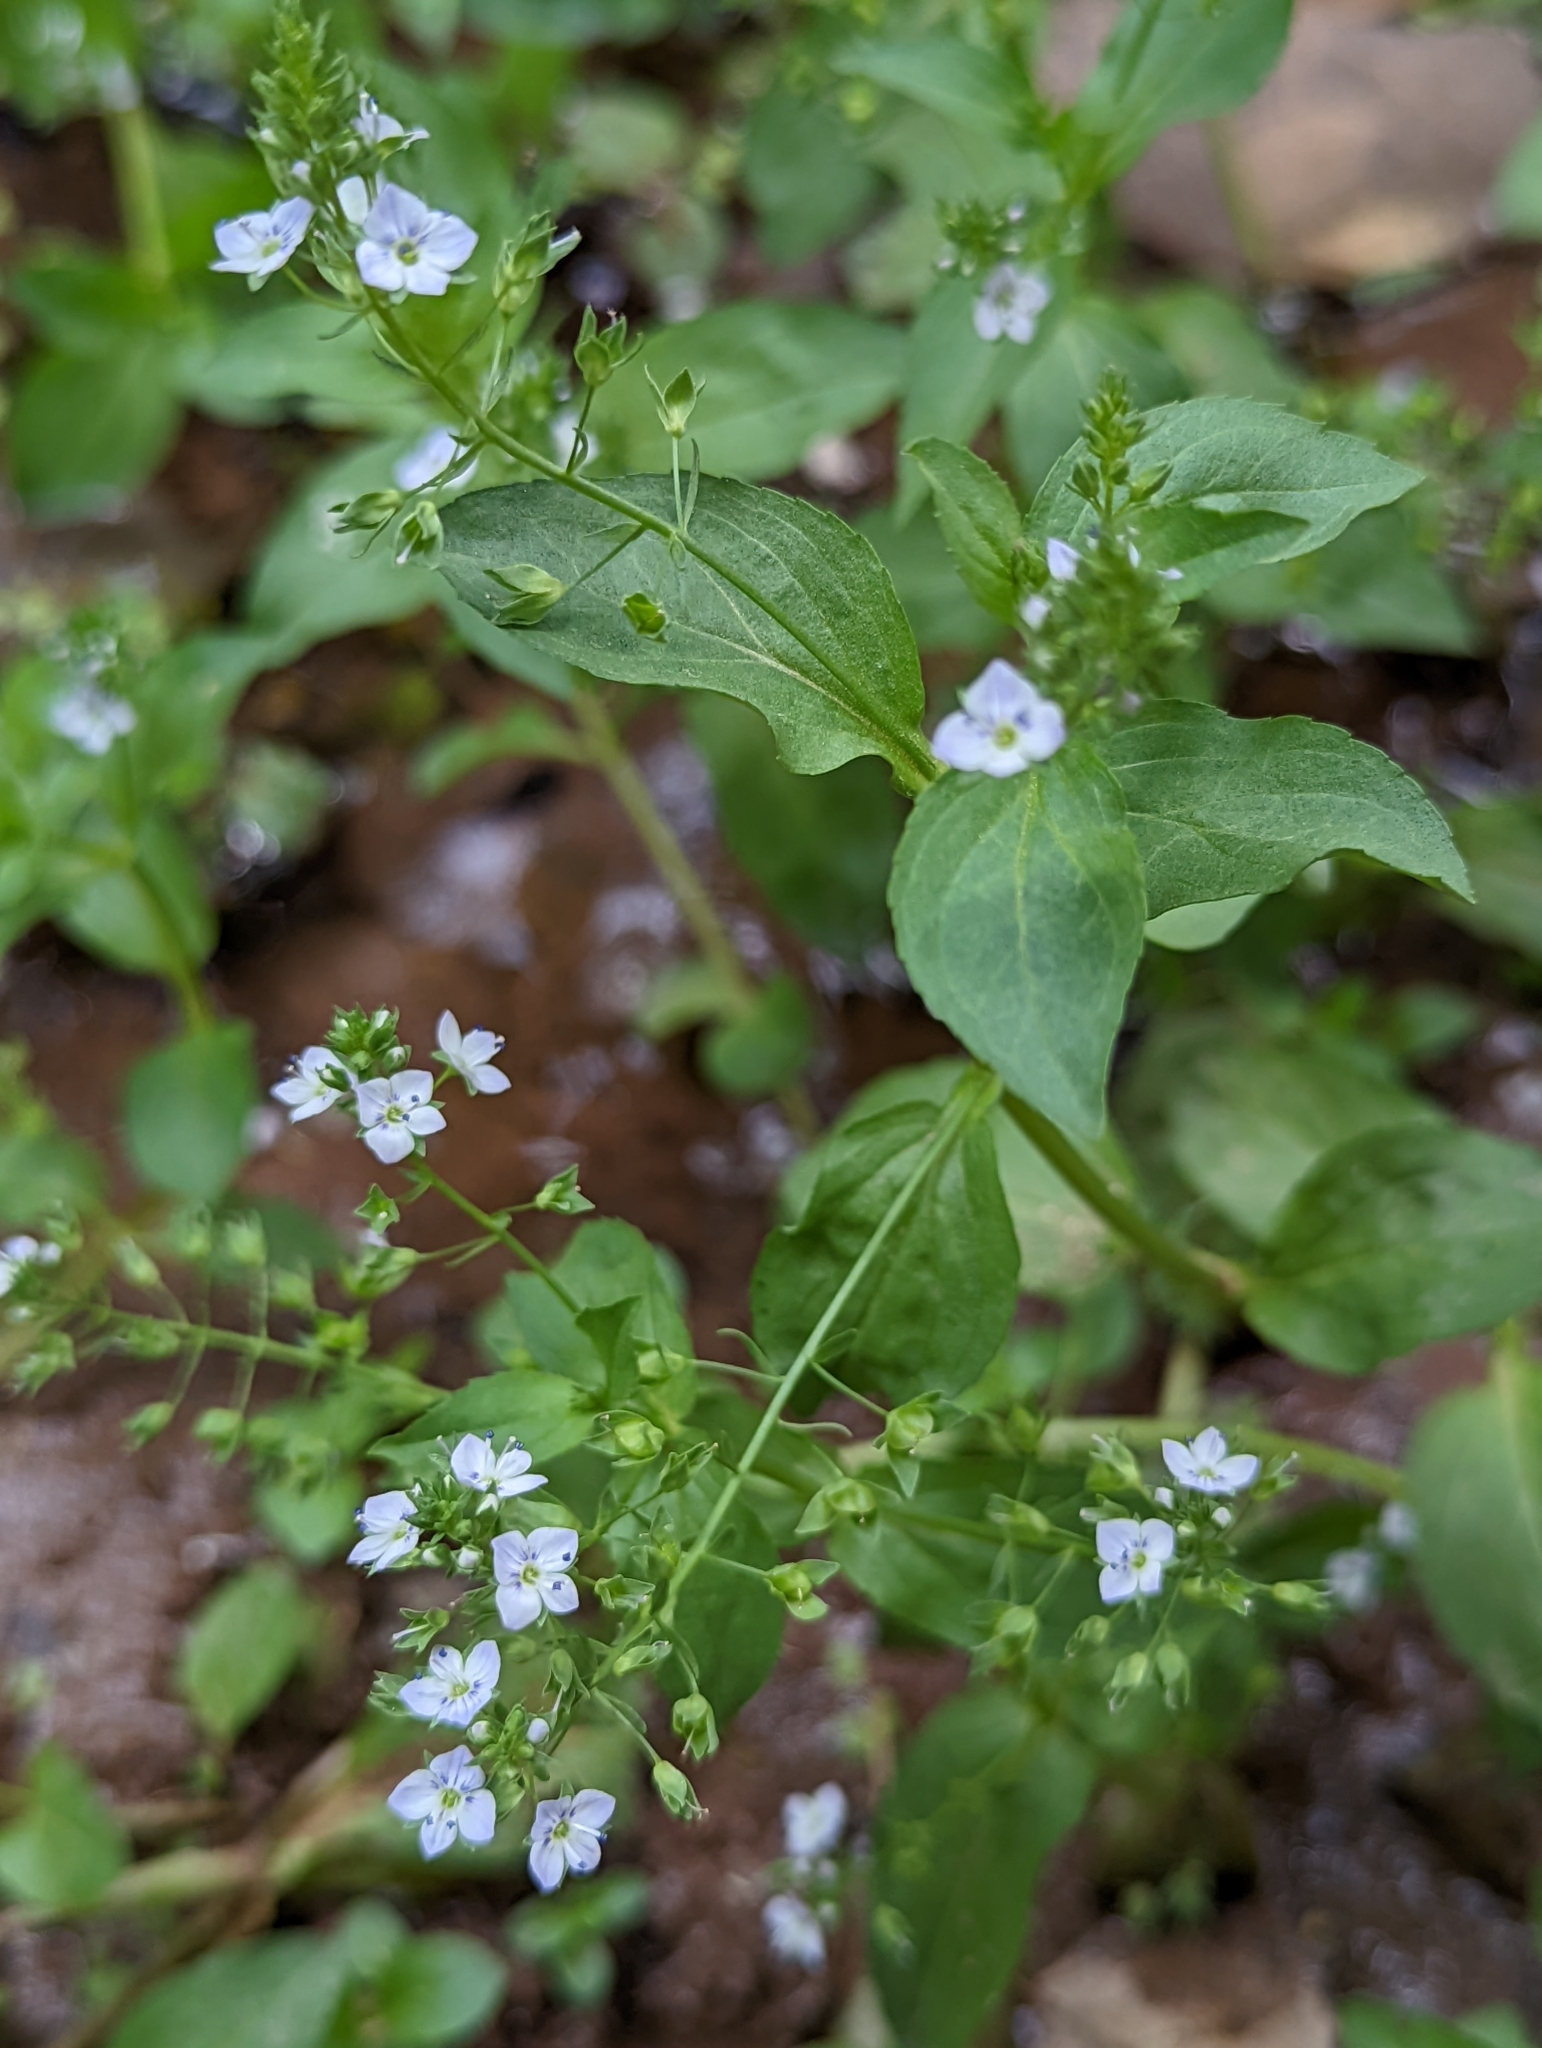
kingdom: Plantae
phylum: Tracheophyta
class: Magnoliopsida
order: Lamiales
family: Plantaginaceae
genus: Veronica
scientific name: Veronica anagallis-aquatica
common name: Water speedwell
